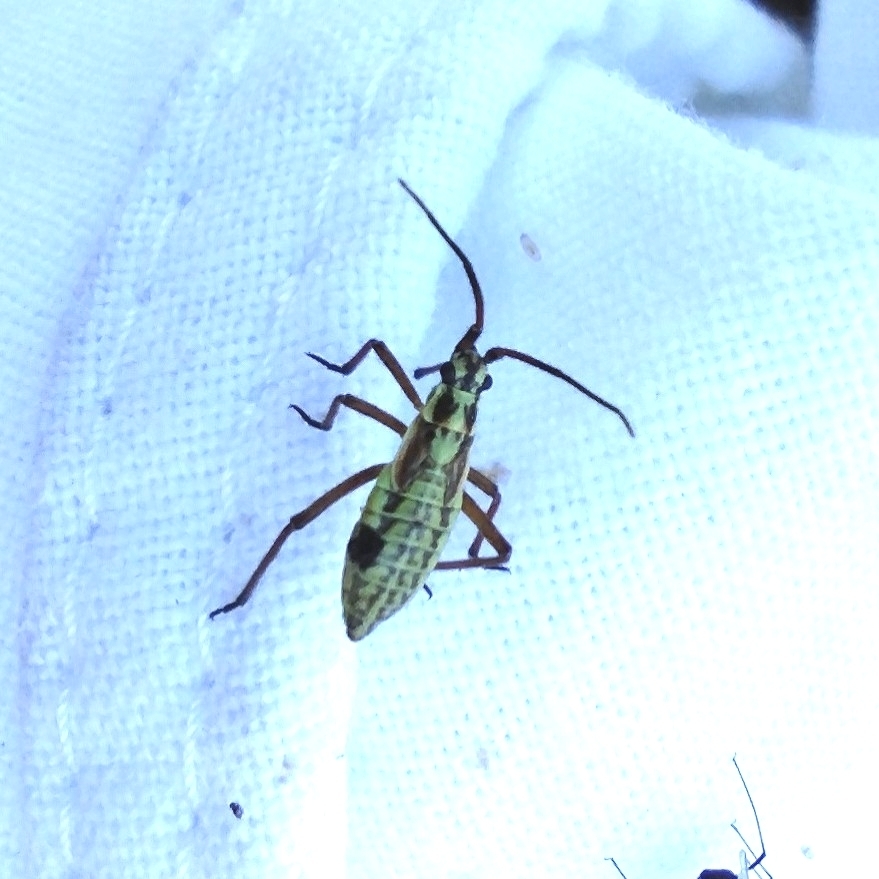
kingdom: Animalia
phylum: Arthropoda
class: Insecta
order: Hemiptera
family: Miridae
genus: Leptopterna
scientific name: Leptopterna dolabrata
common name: Meadow plant bug
